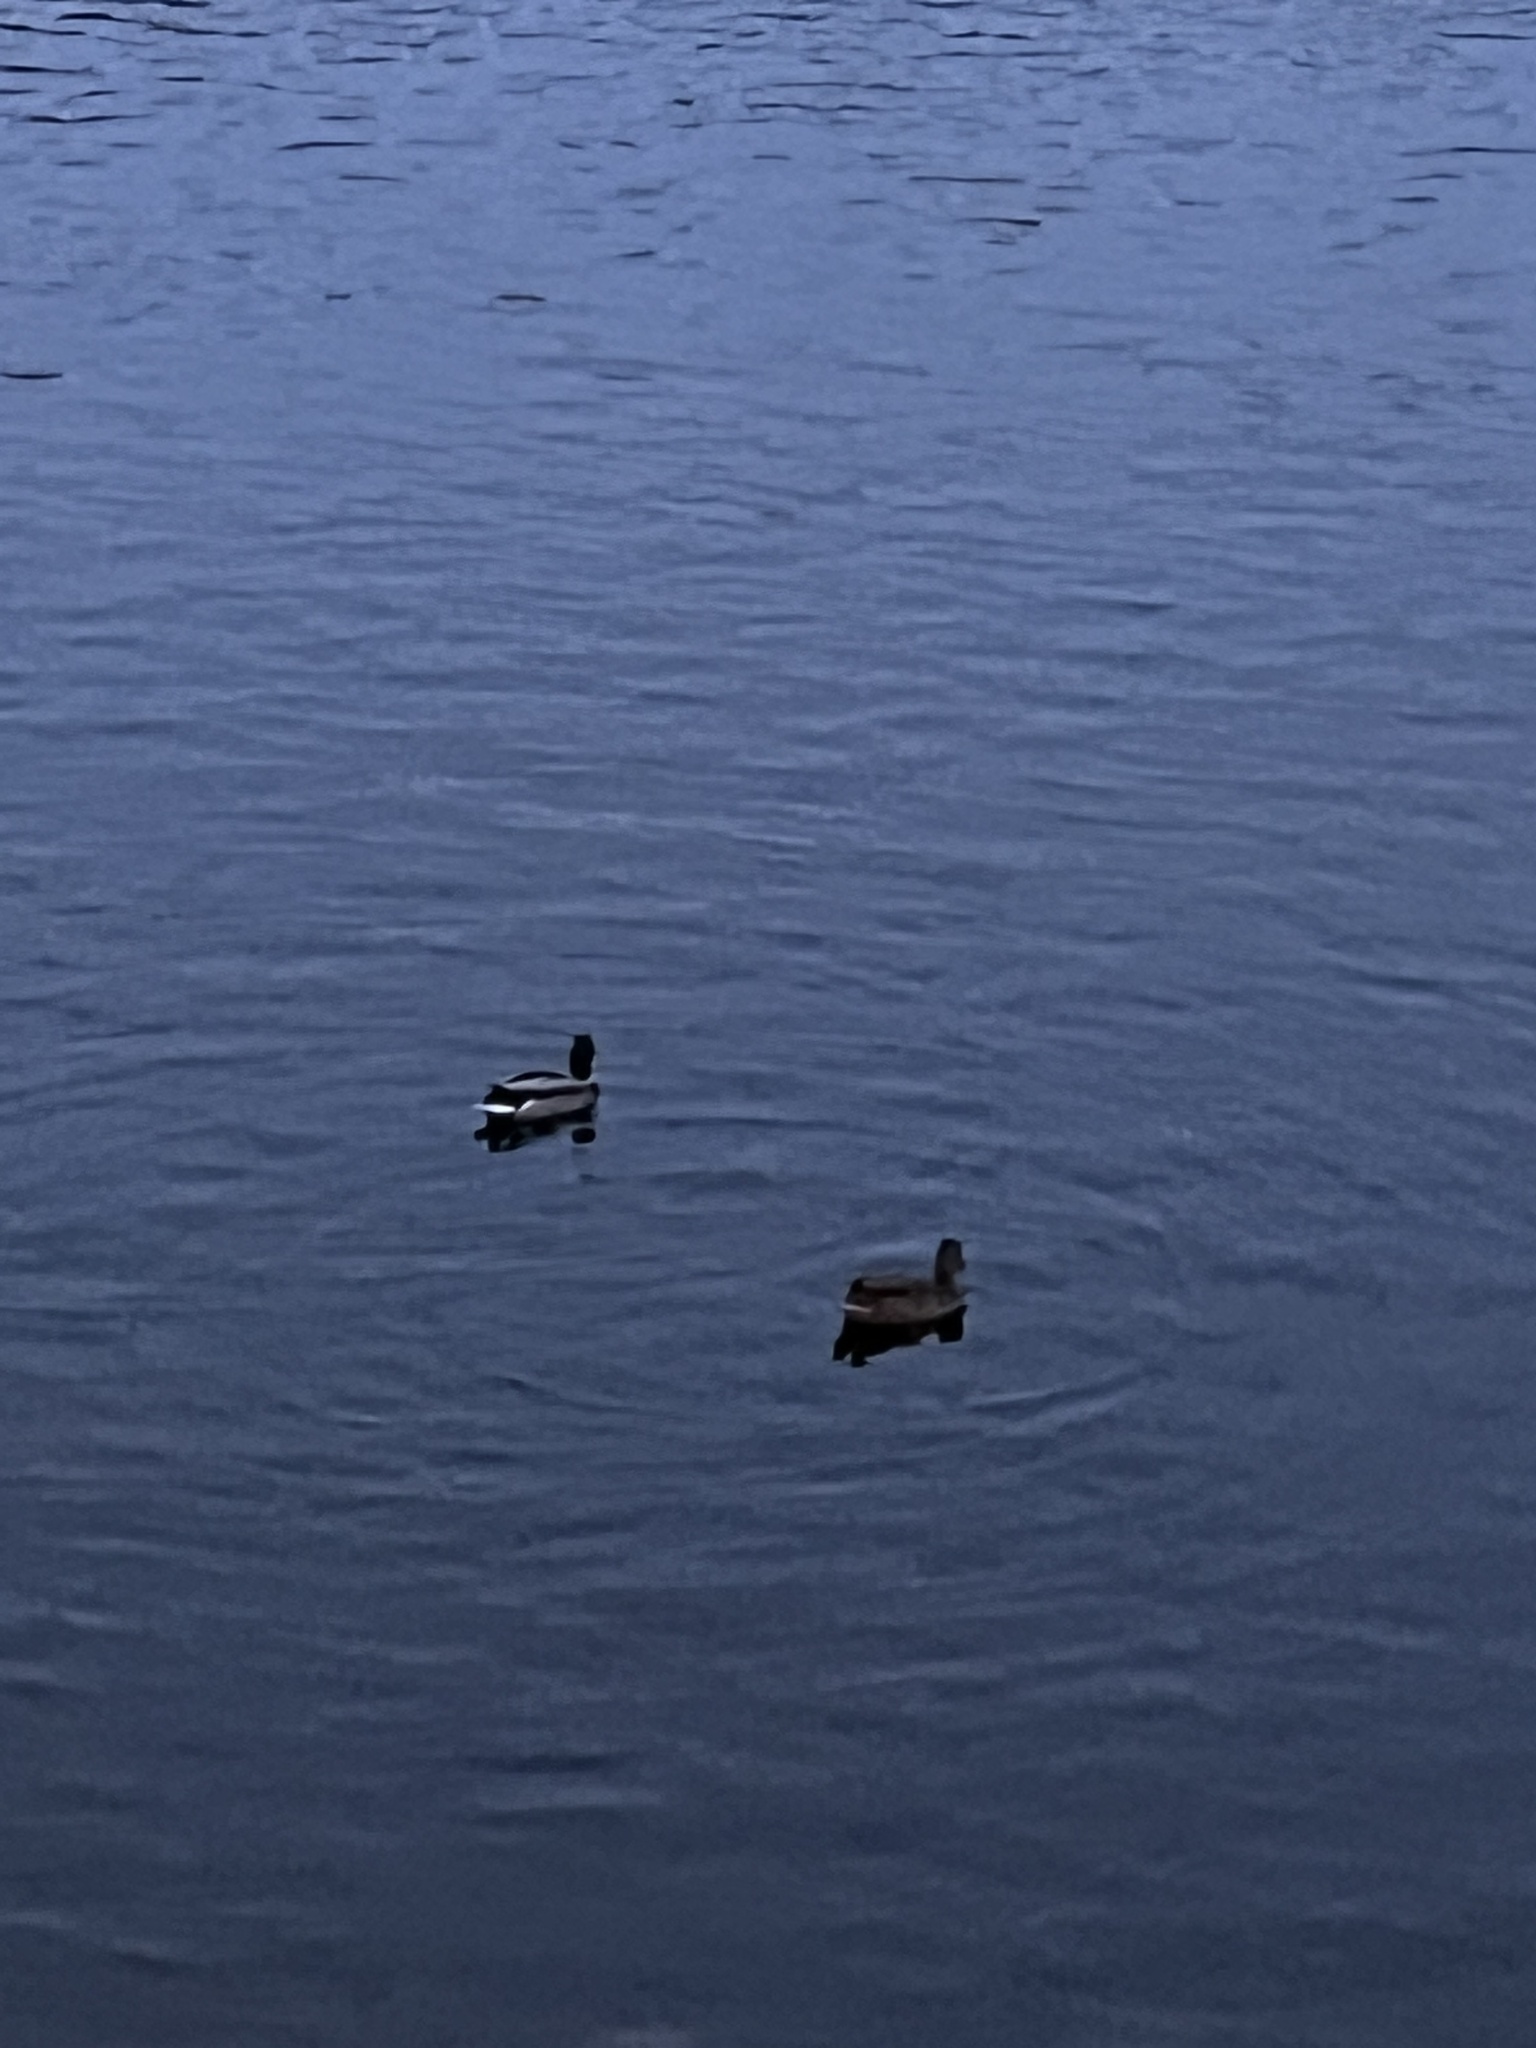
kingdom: Animalia
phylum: Chordata
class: Aves
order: Anseriformes
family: Anatidae
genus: Anas
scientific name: Anas platyrhynchos
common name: Mallard
